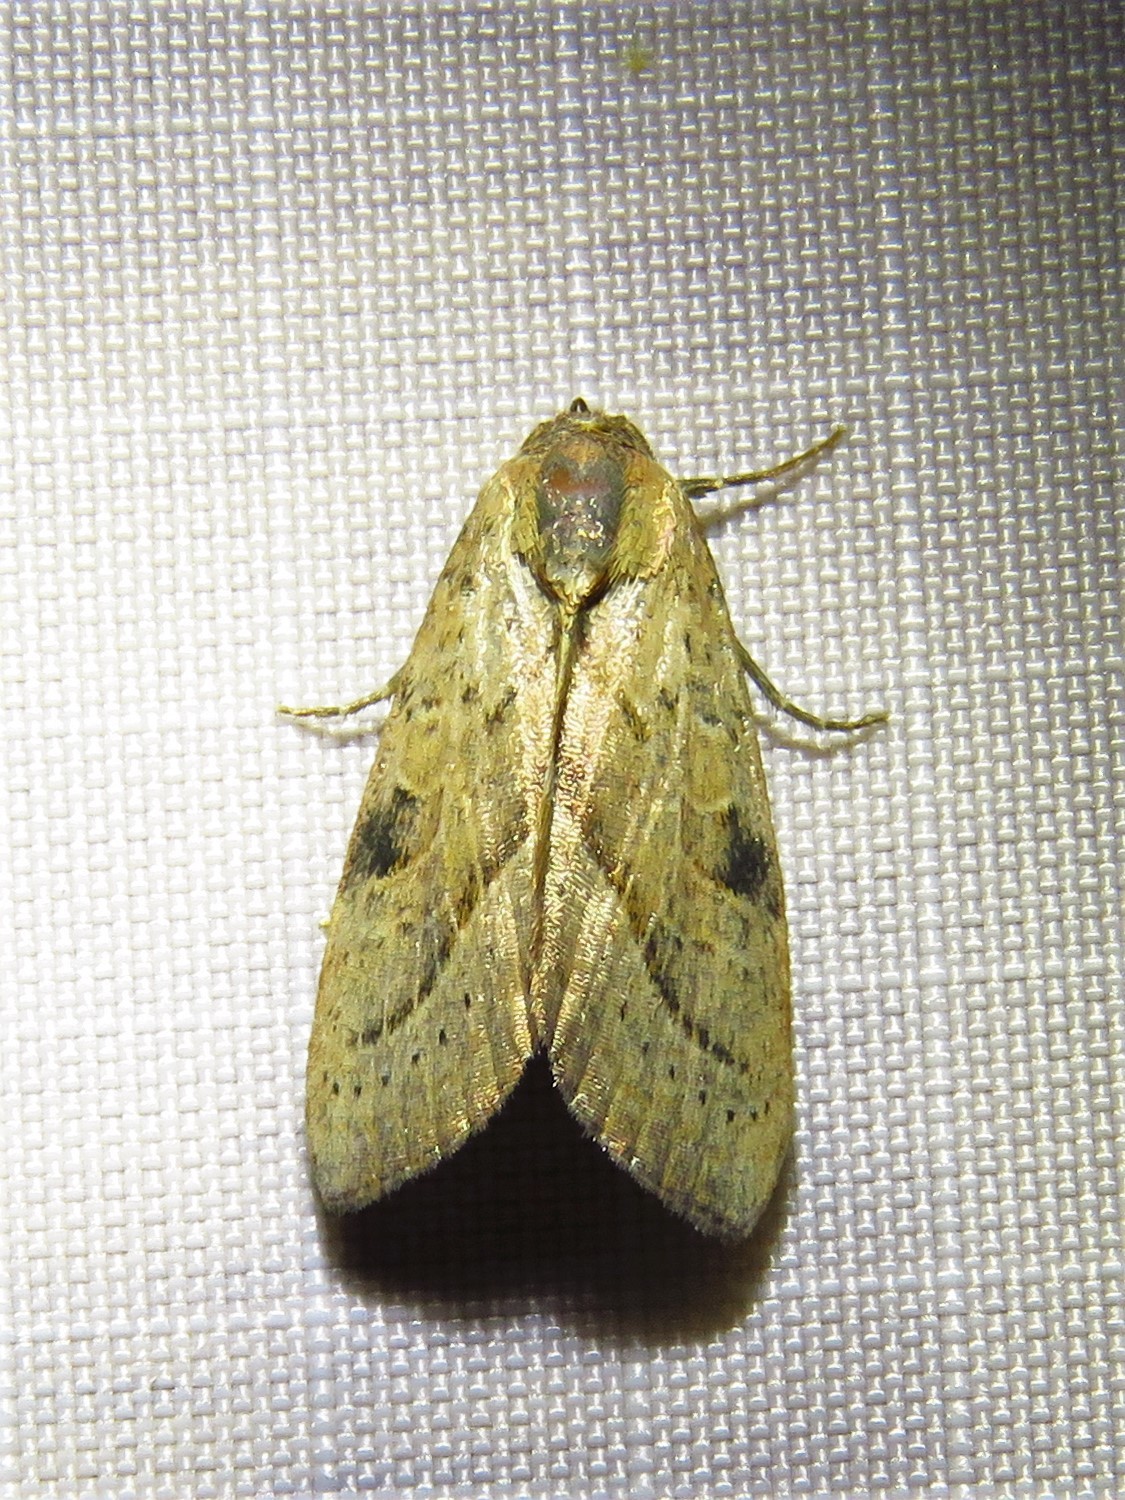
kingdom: Animalia
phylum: Arthropoda
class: Insecta
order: Lepidoptera
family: Noctuidae
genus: Galgula
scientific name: Galgula partita
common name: Wedgeling
